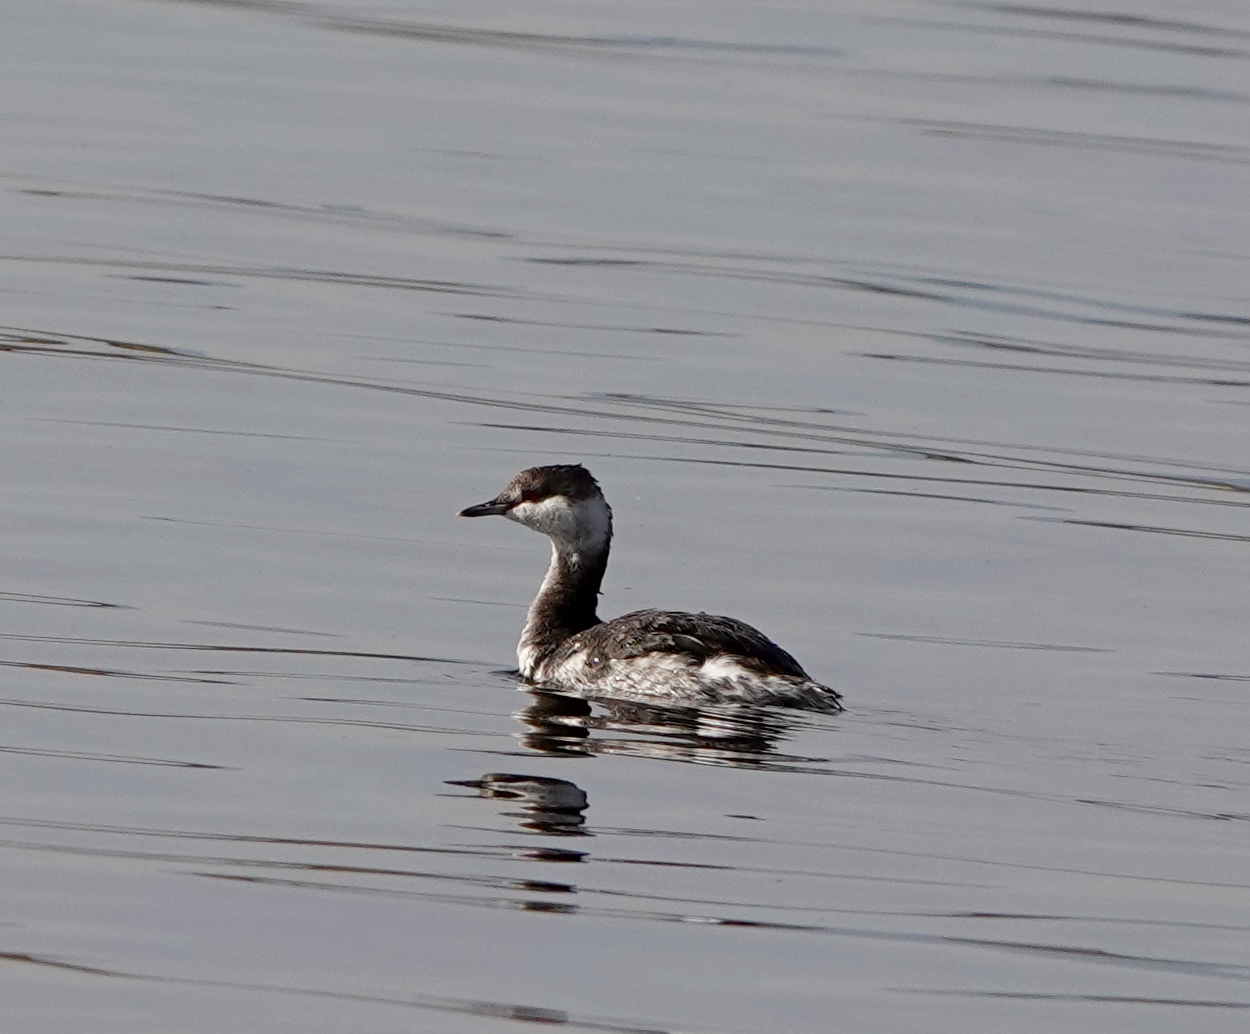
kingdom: Animalia
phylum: Chordata
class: Aves
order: Podicipediformes
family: Podicipedidae
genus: Podiceps
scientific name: Podiceps auritus
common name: Horned grebe
